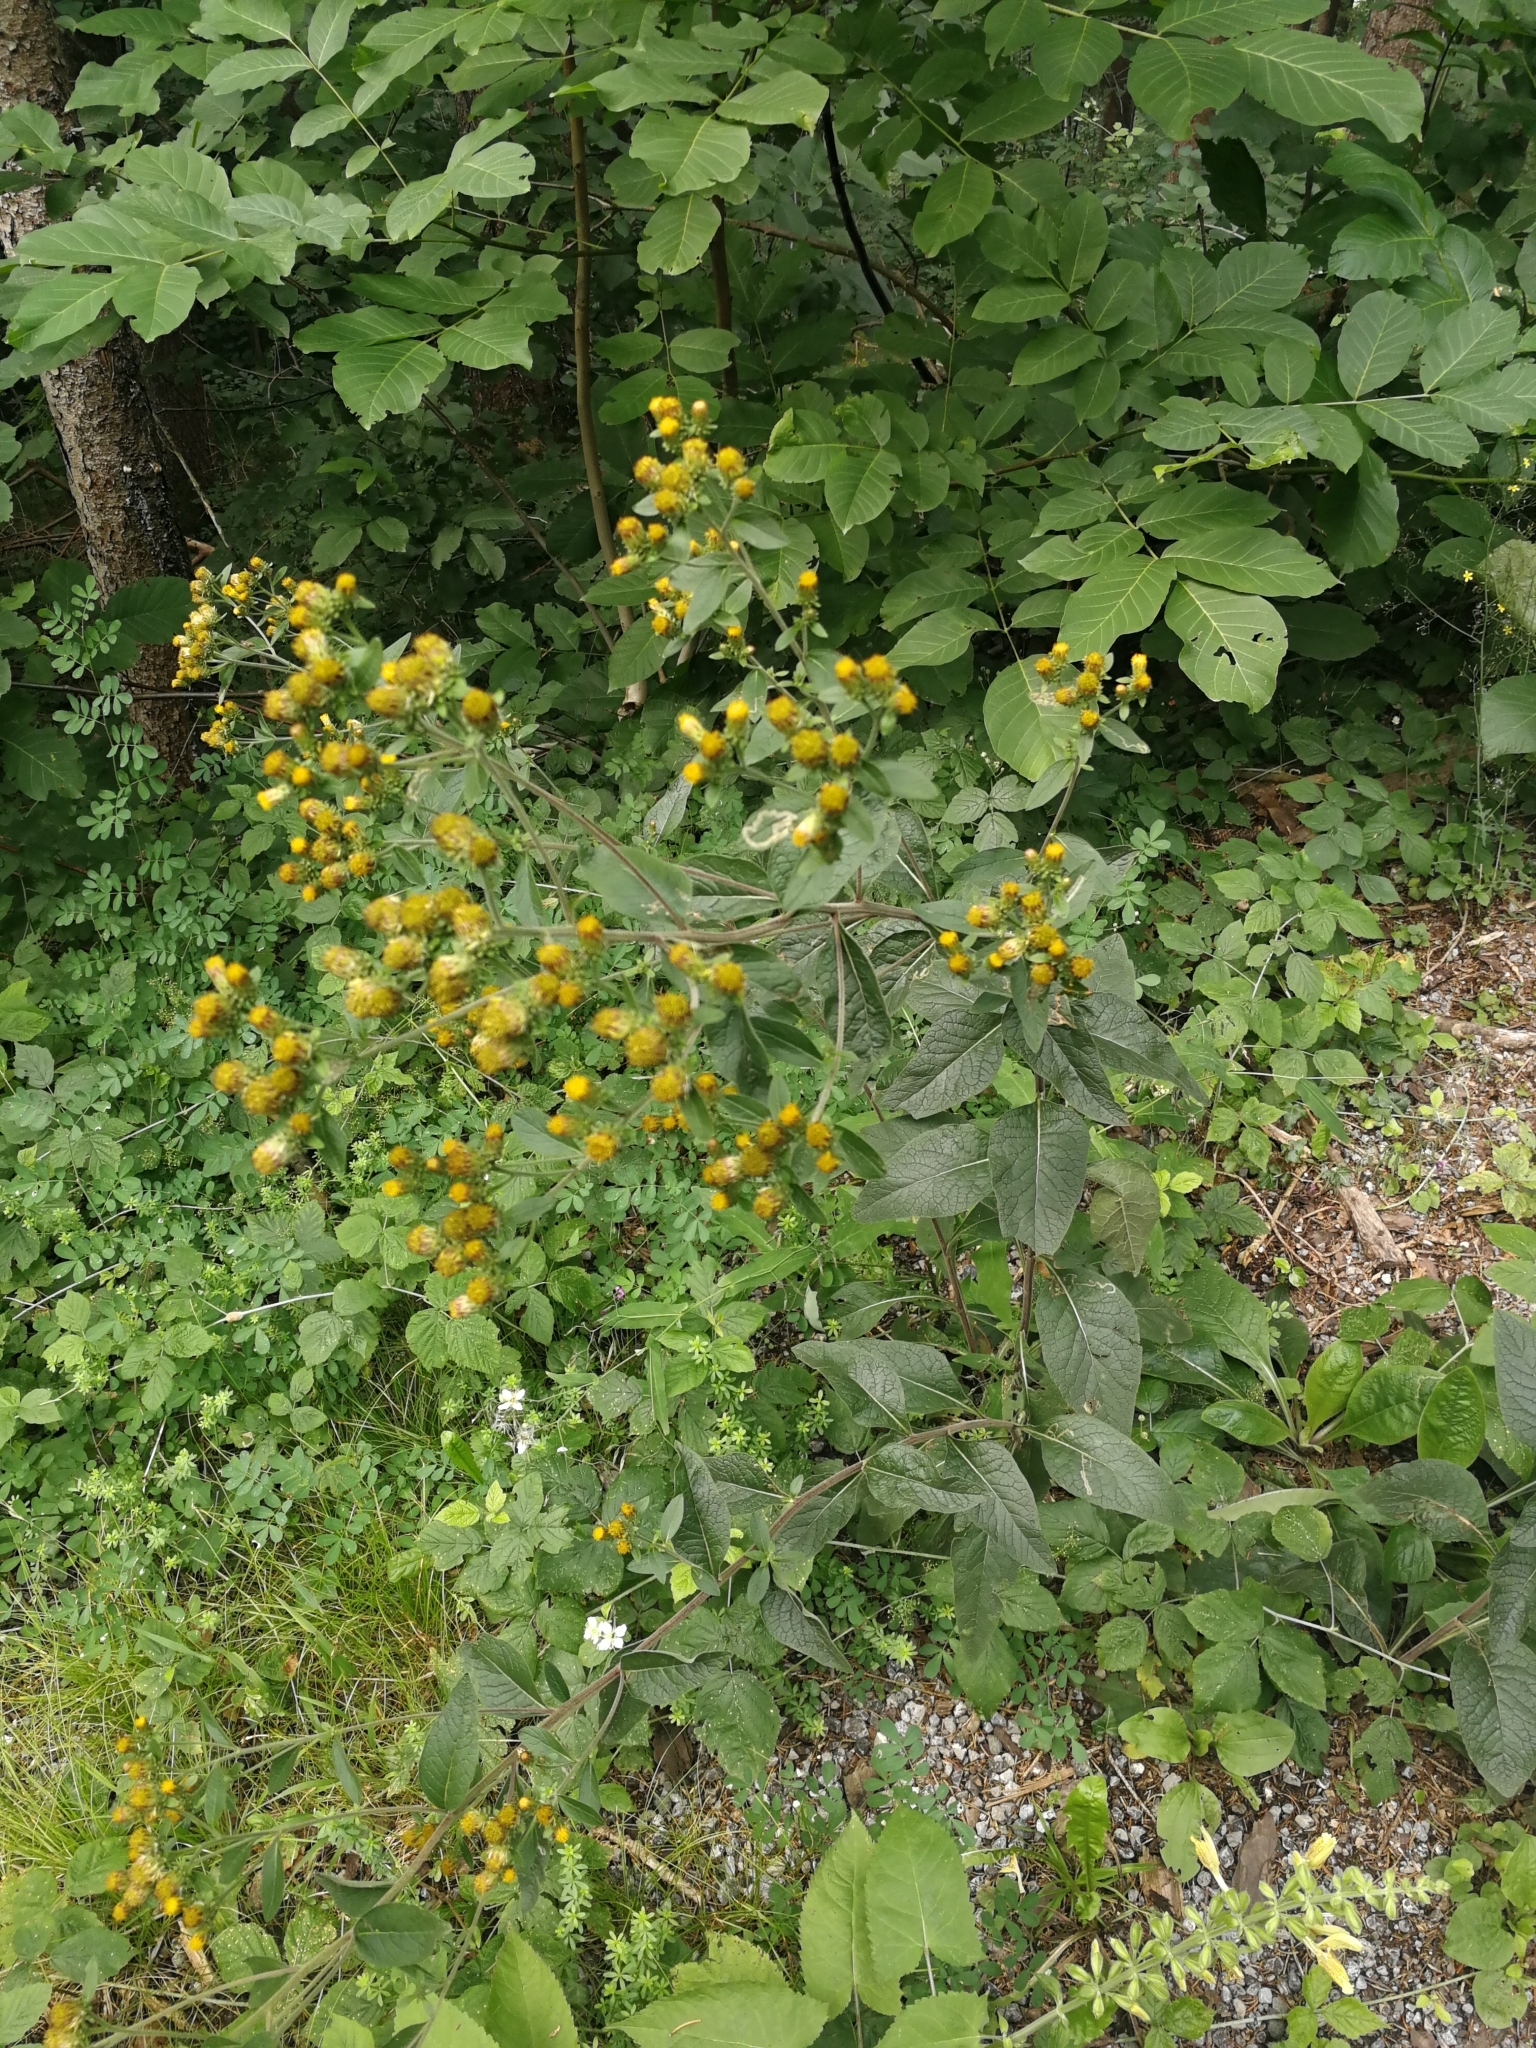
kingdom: Plantae
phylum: Tracheophyta
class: Magnoliopsida
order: Asterales
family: Asteraceae
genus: Pentanema
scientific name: Pentanema squarrosum
